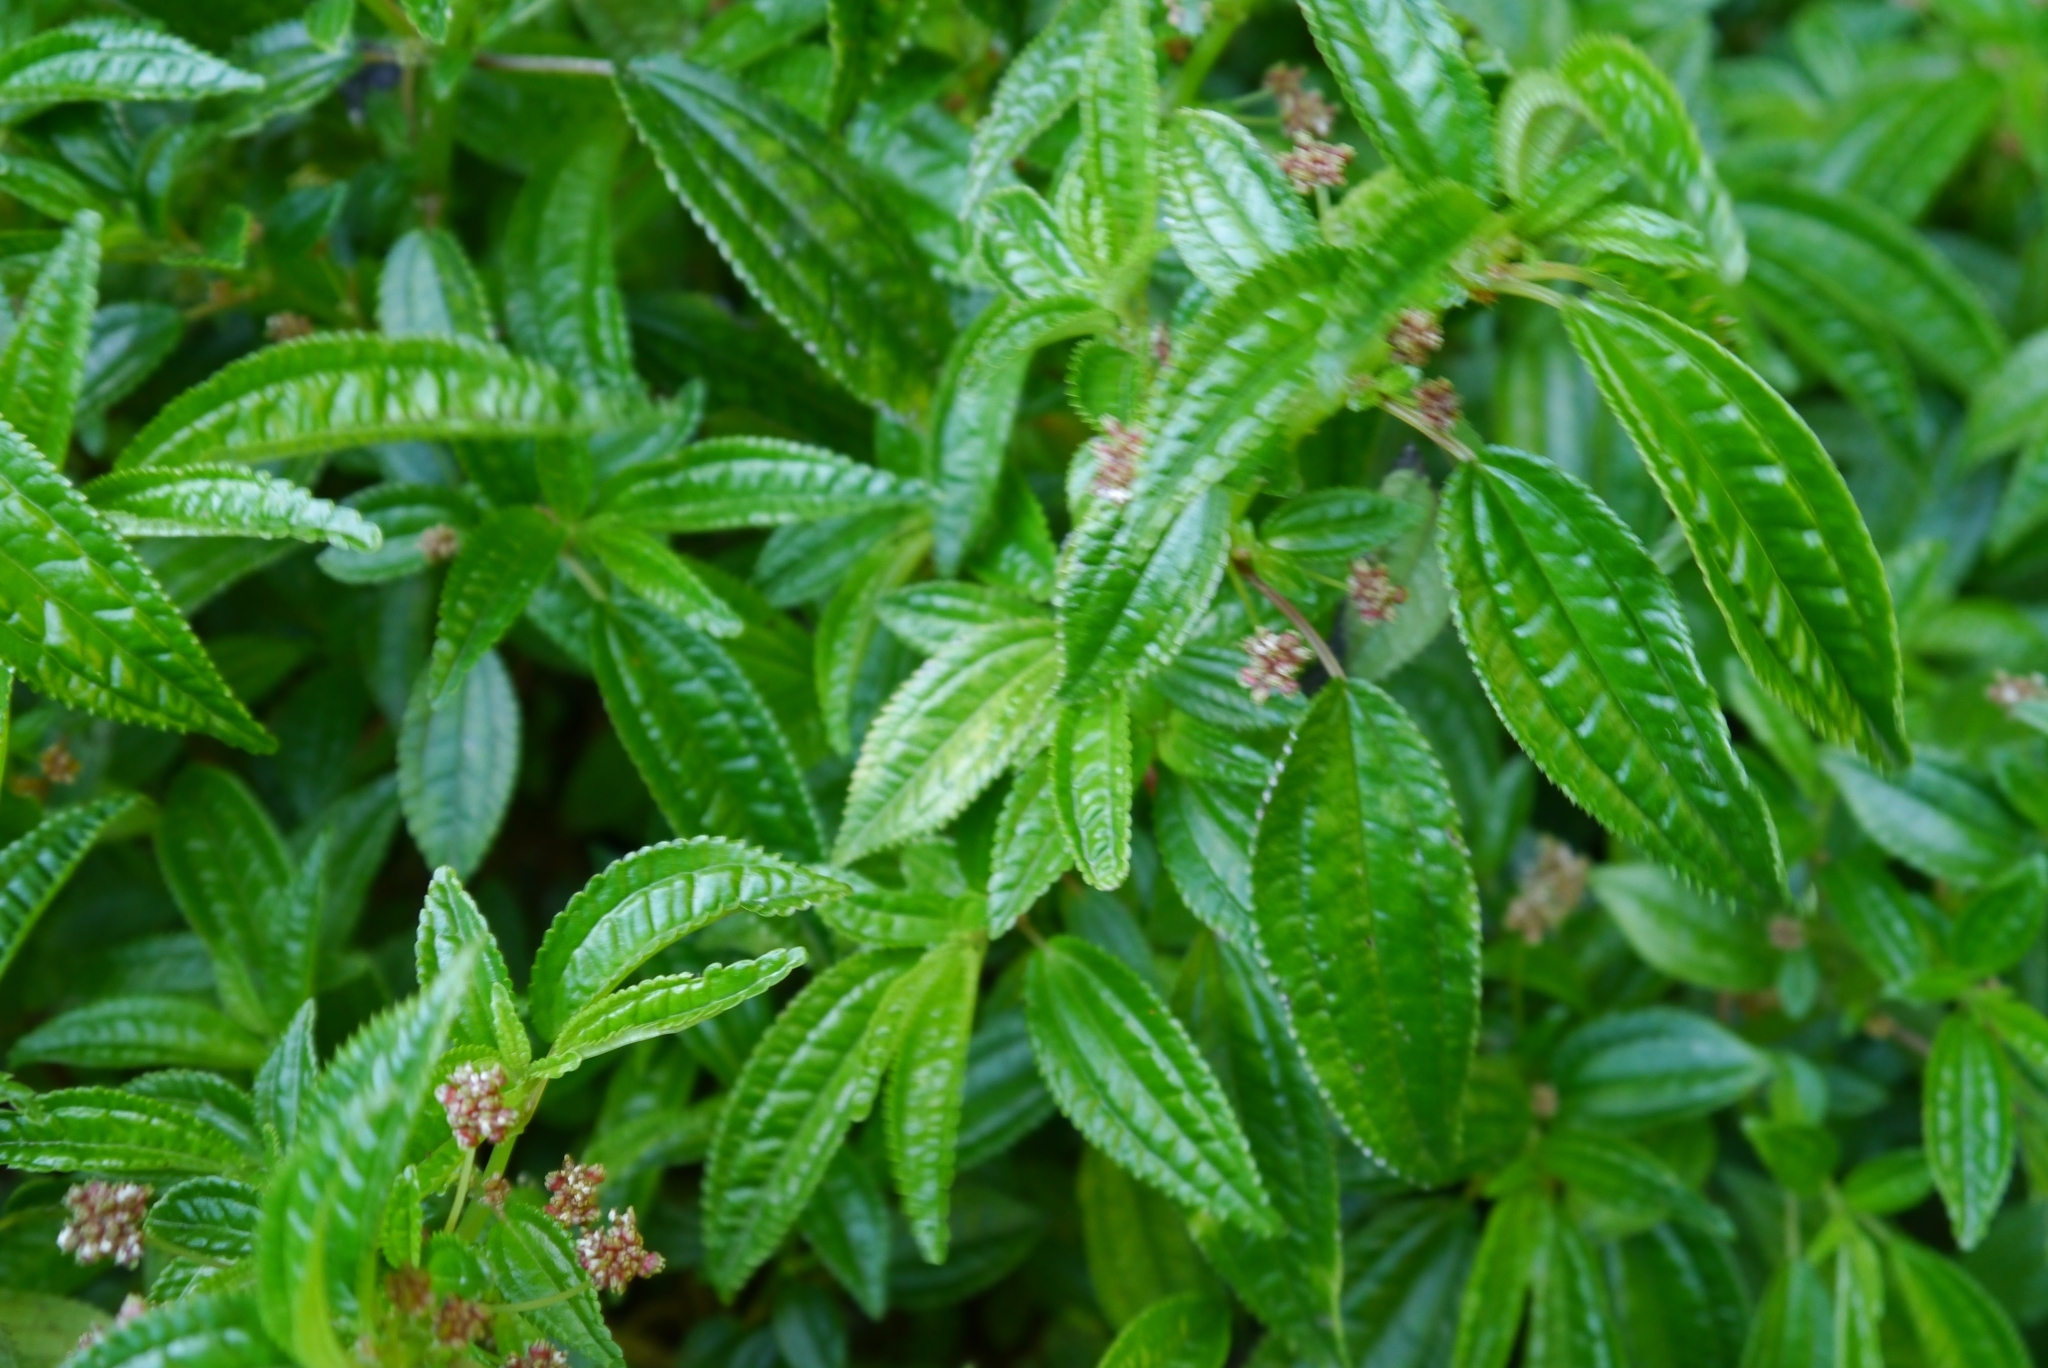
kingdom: Plantae
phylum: Tracheophyta
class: Magnoliopsida
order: Rosales
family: Urticaceae
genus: Pilea
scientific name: Pilea elegans
